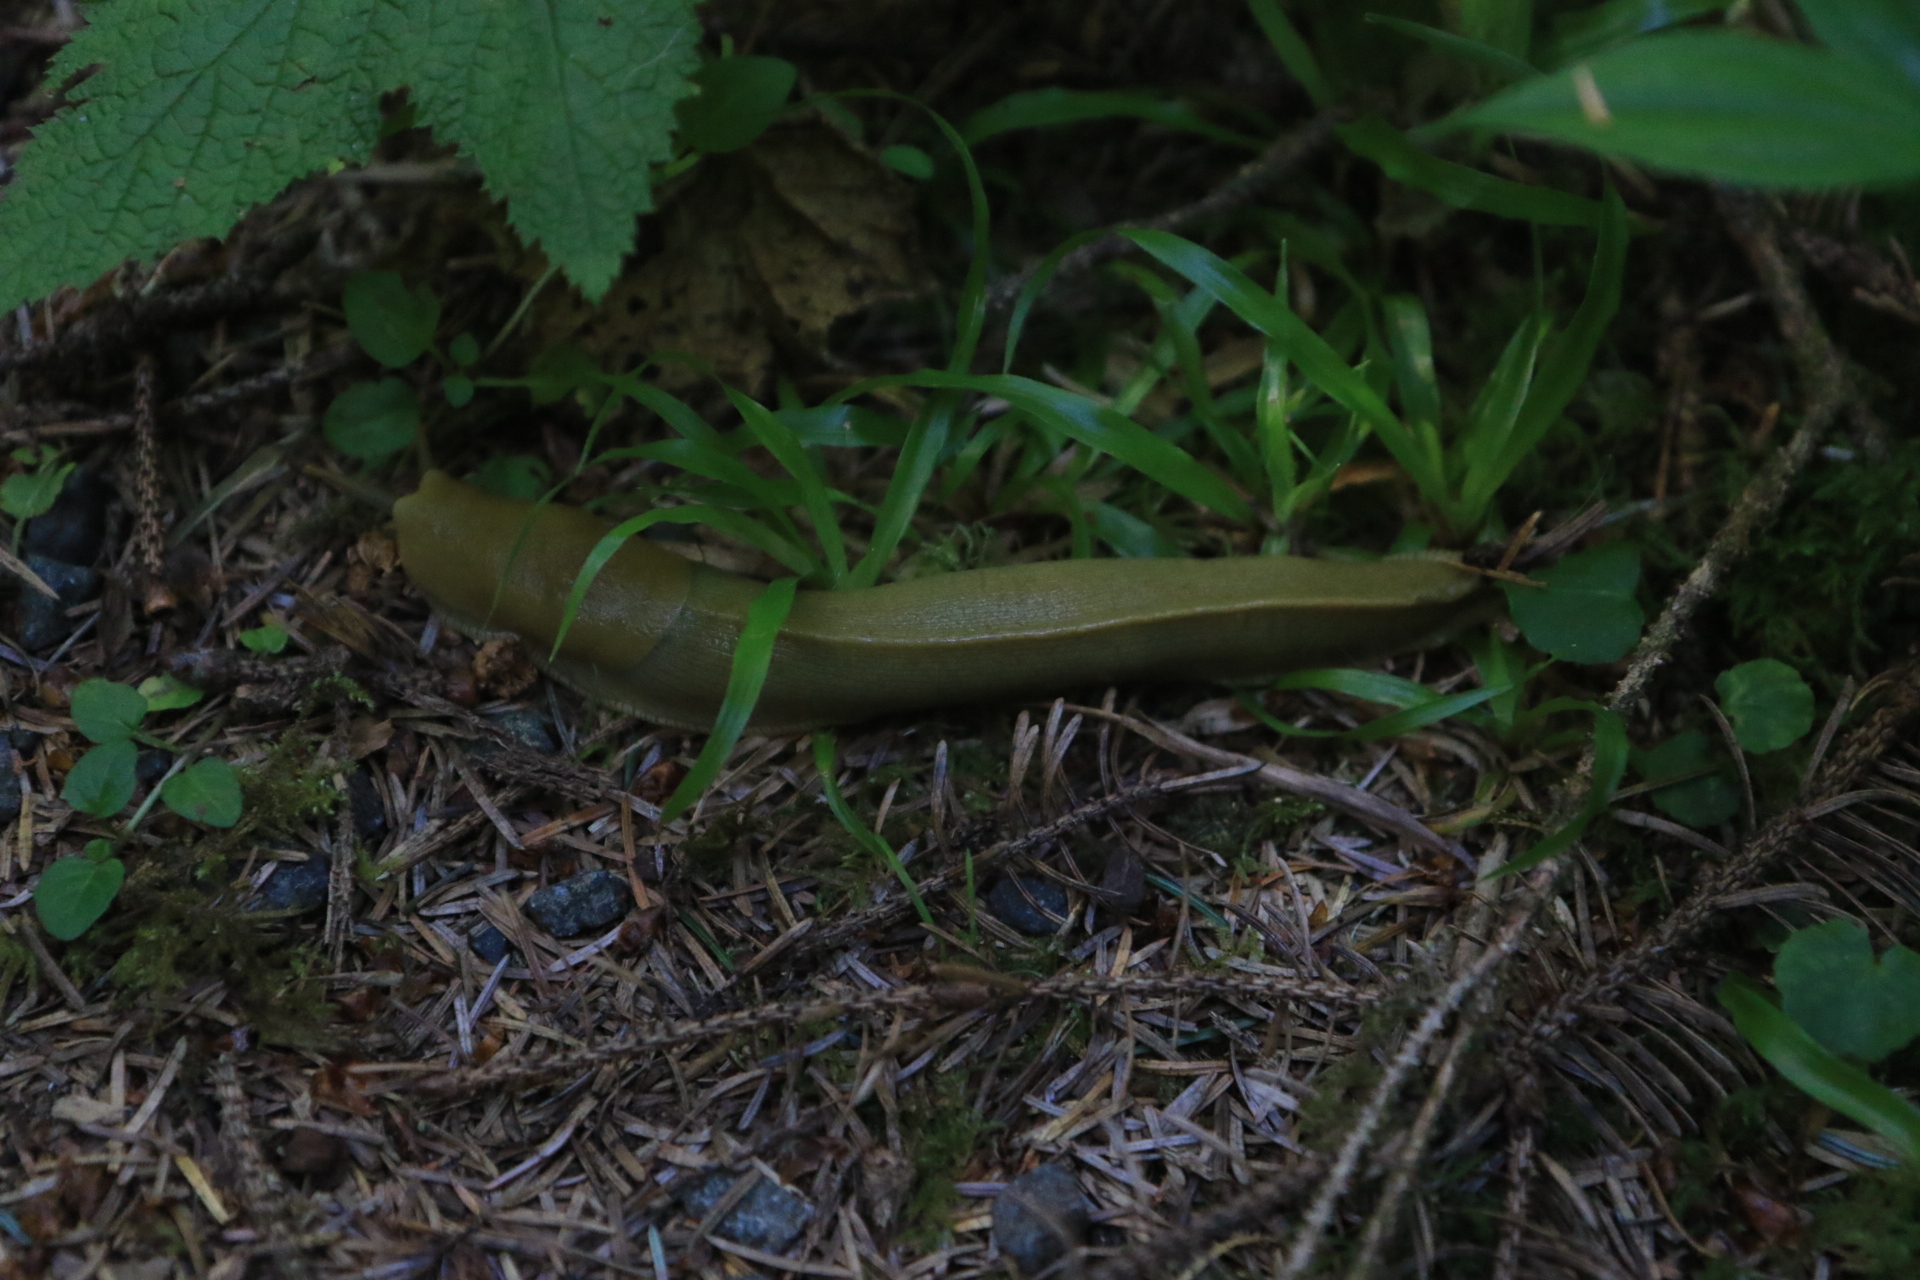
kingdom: Animalia
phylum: Mollusca
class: Gastropoda
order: Stylommatophora
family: Ariolimacidae
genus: Ariolimax
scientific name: Ariolimax columbianus
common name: Pacific banana slug
